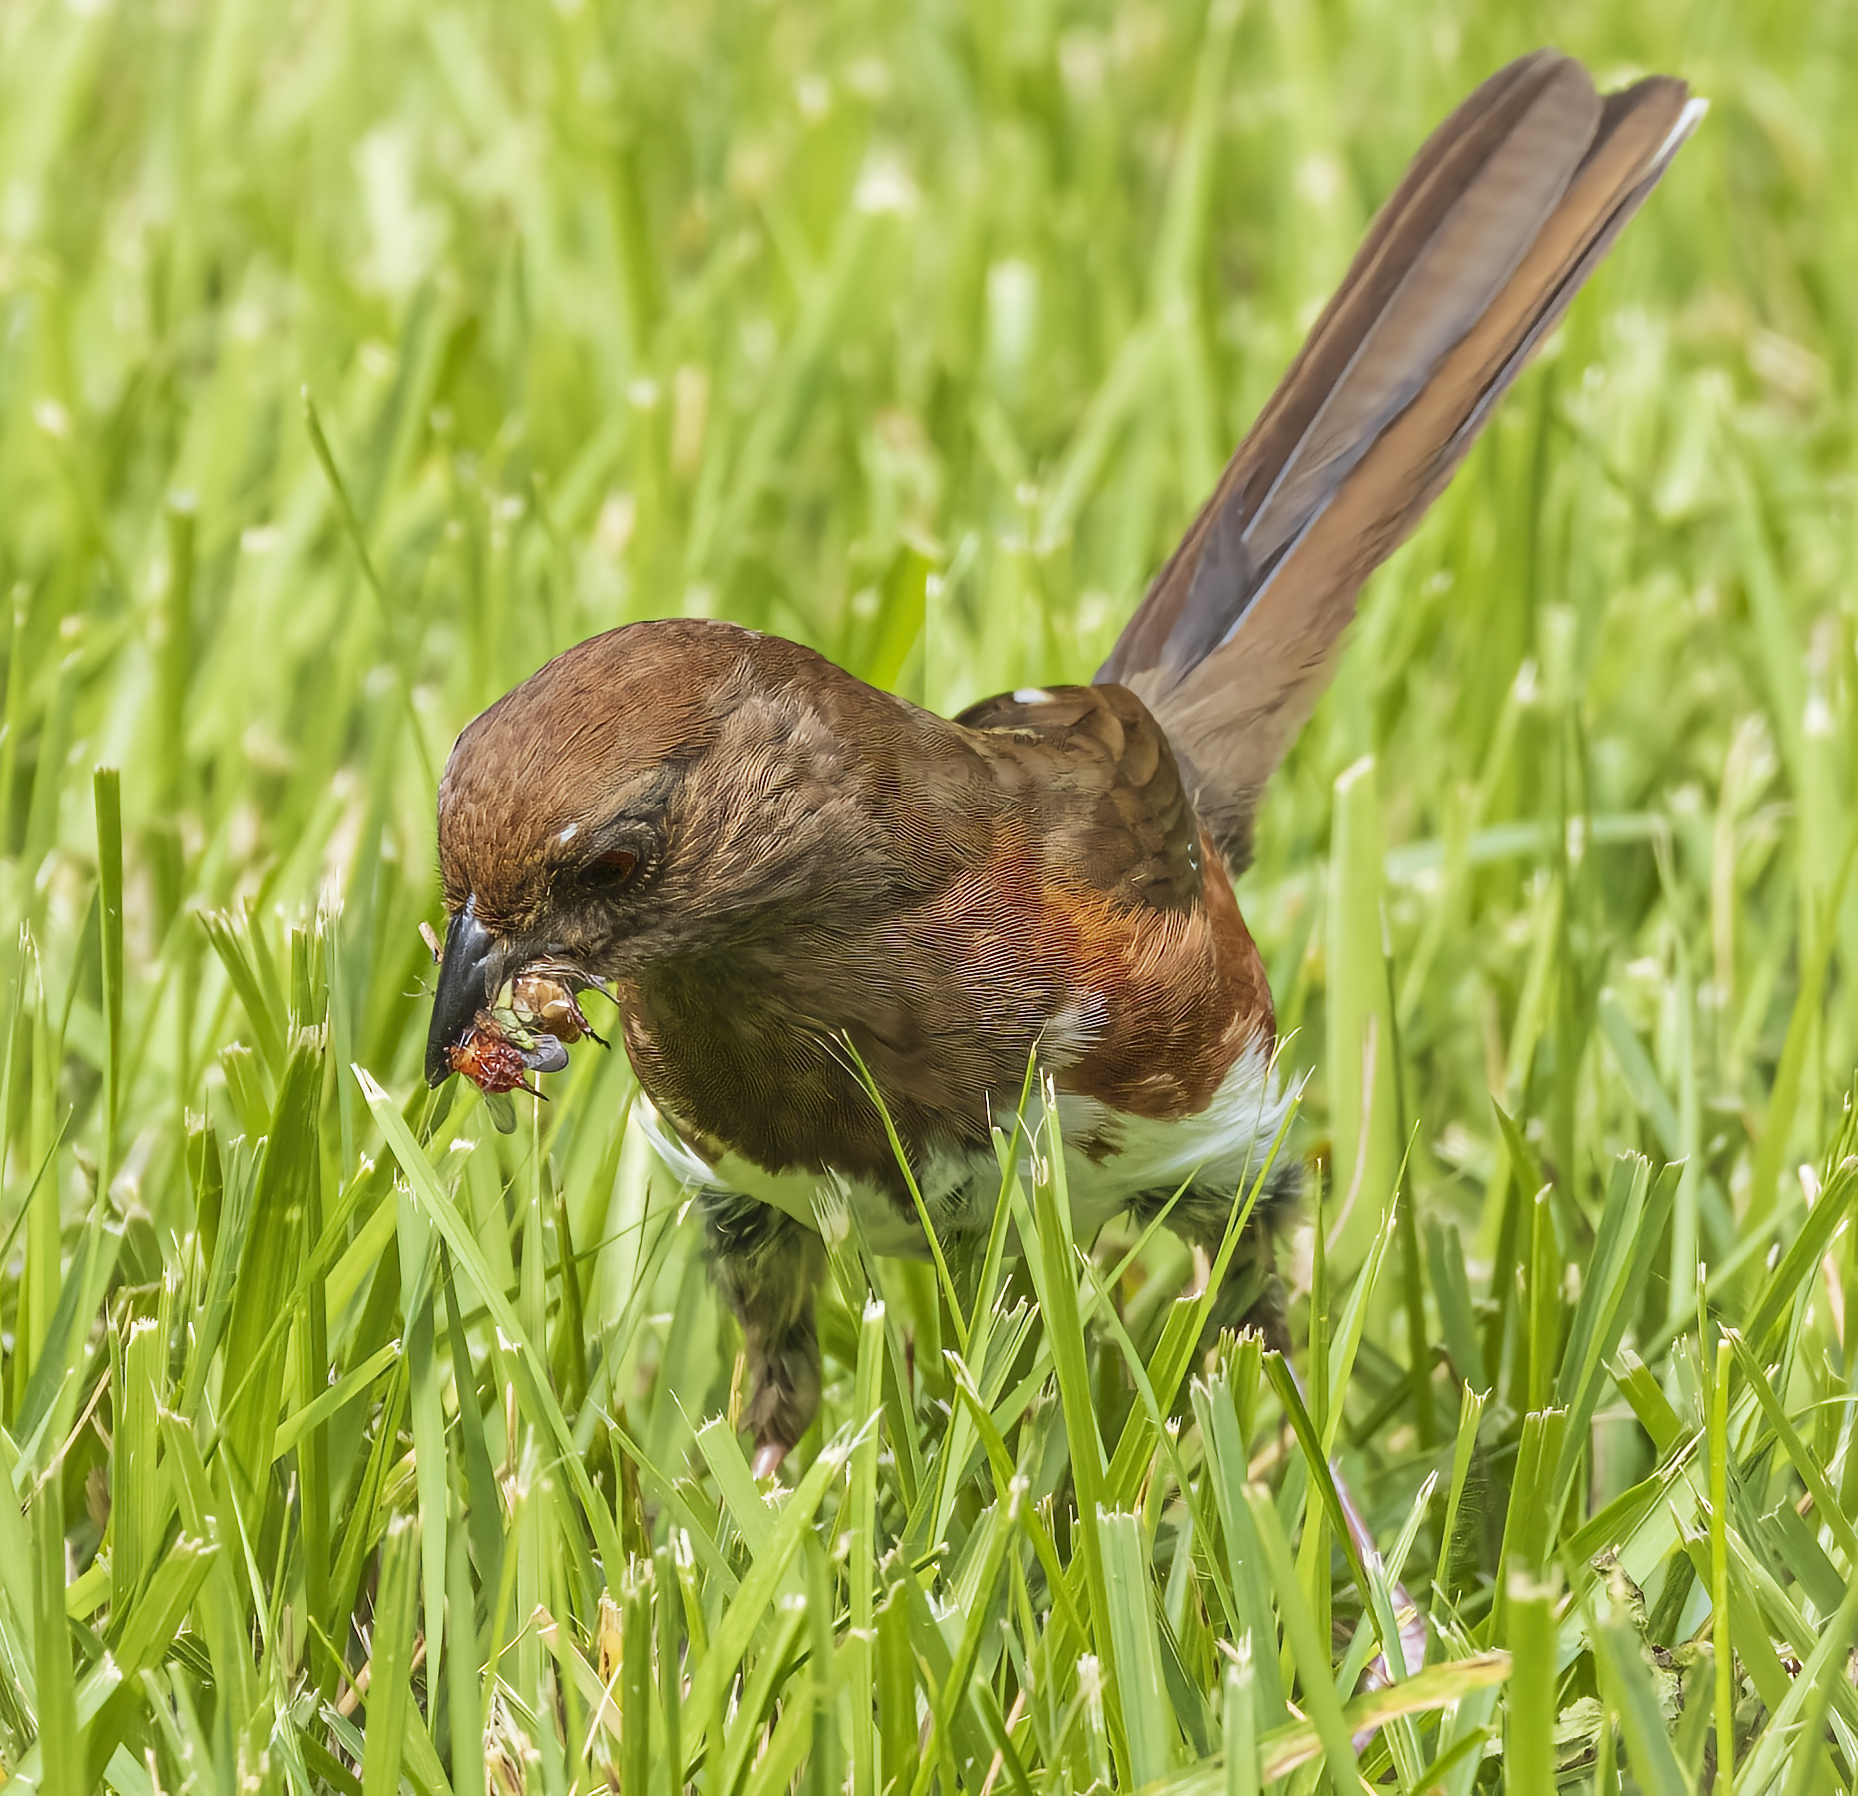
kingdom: Animalia
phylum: Chordata
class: Aves
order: Passeriformes
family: Passerellidae
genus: Pipilo
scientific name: Pipilo erythrophthalmus
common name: Eastern towhee
